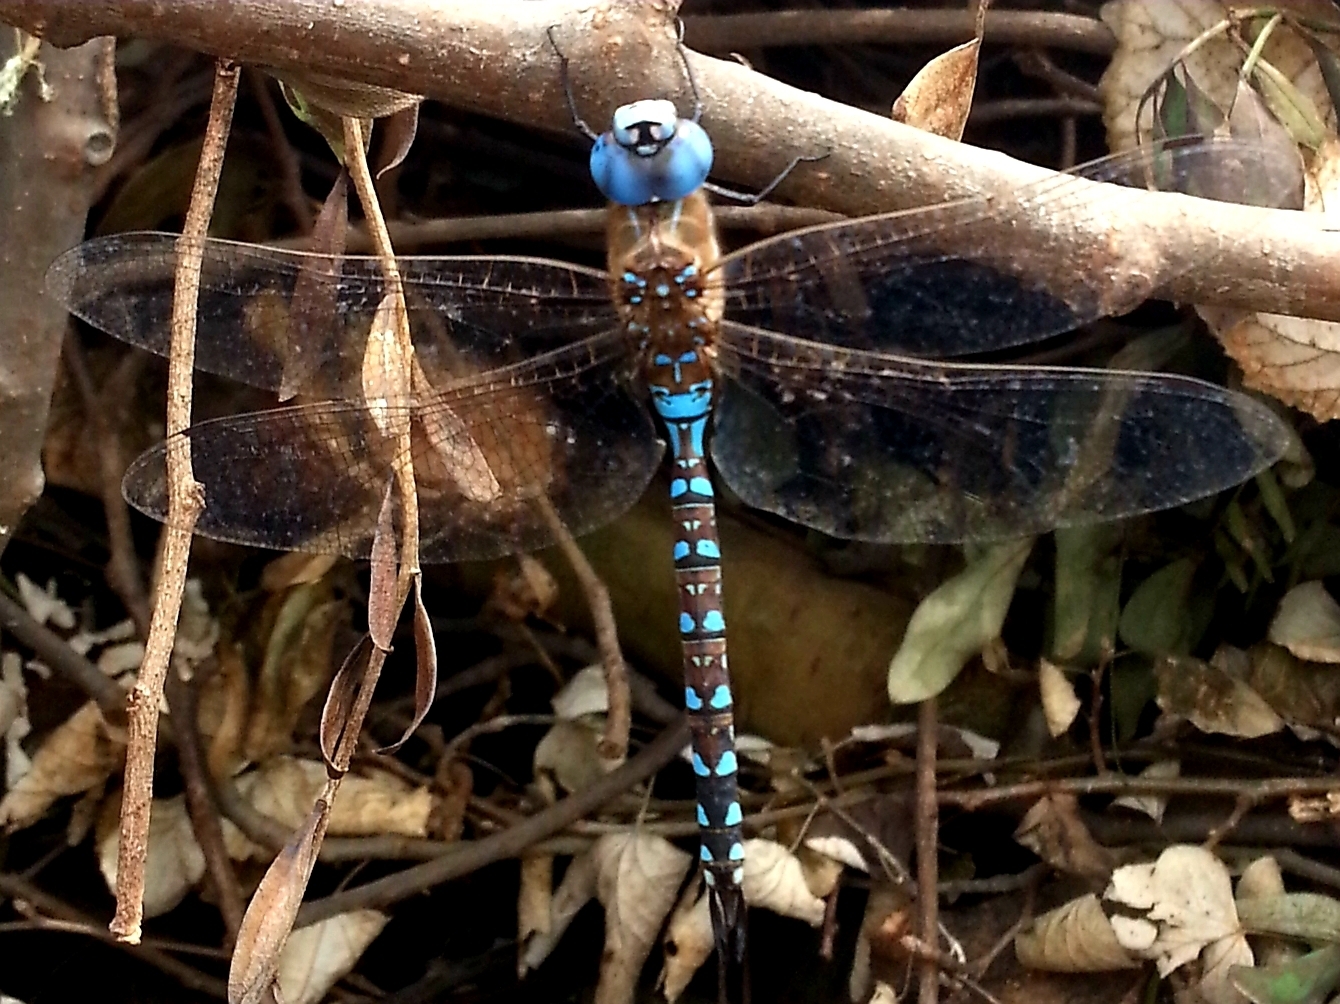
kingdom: Animalia
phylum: Arthropoda
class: Insecta
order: Odonata
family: Aeshnidae
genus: Rhionaeschna
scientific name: Rhionaeschna multicolor
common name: Blue-eyed darner
